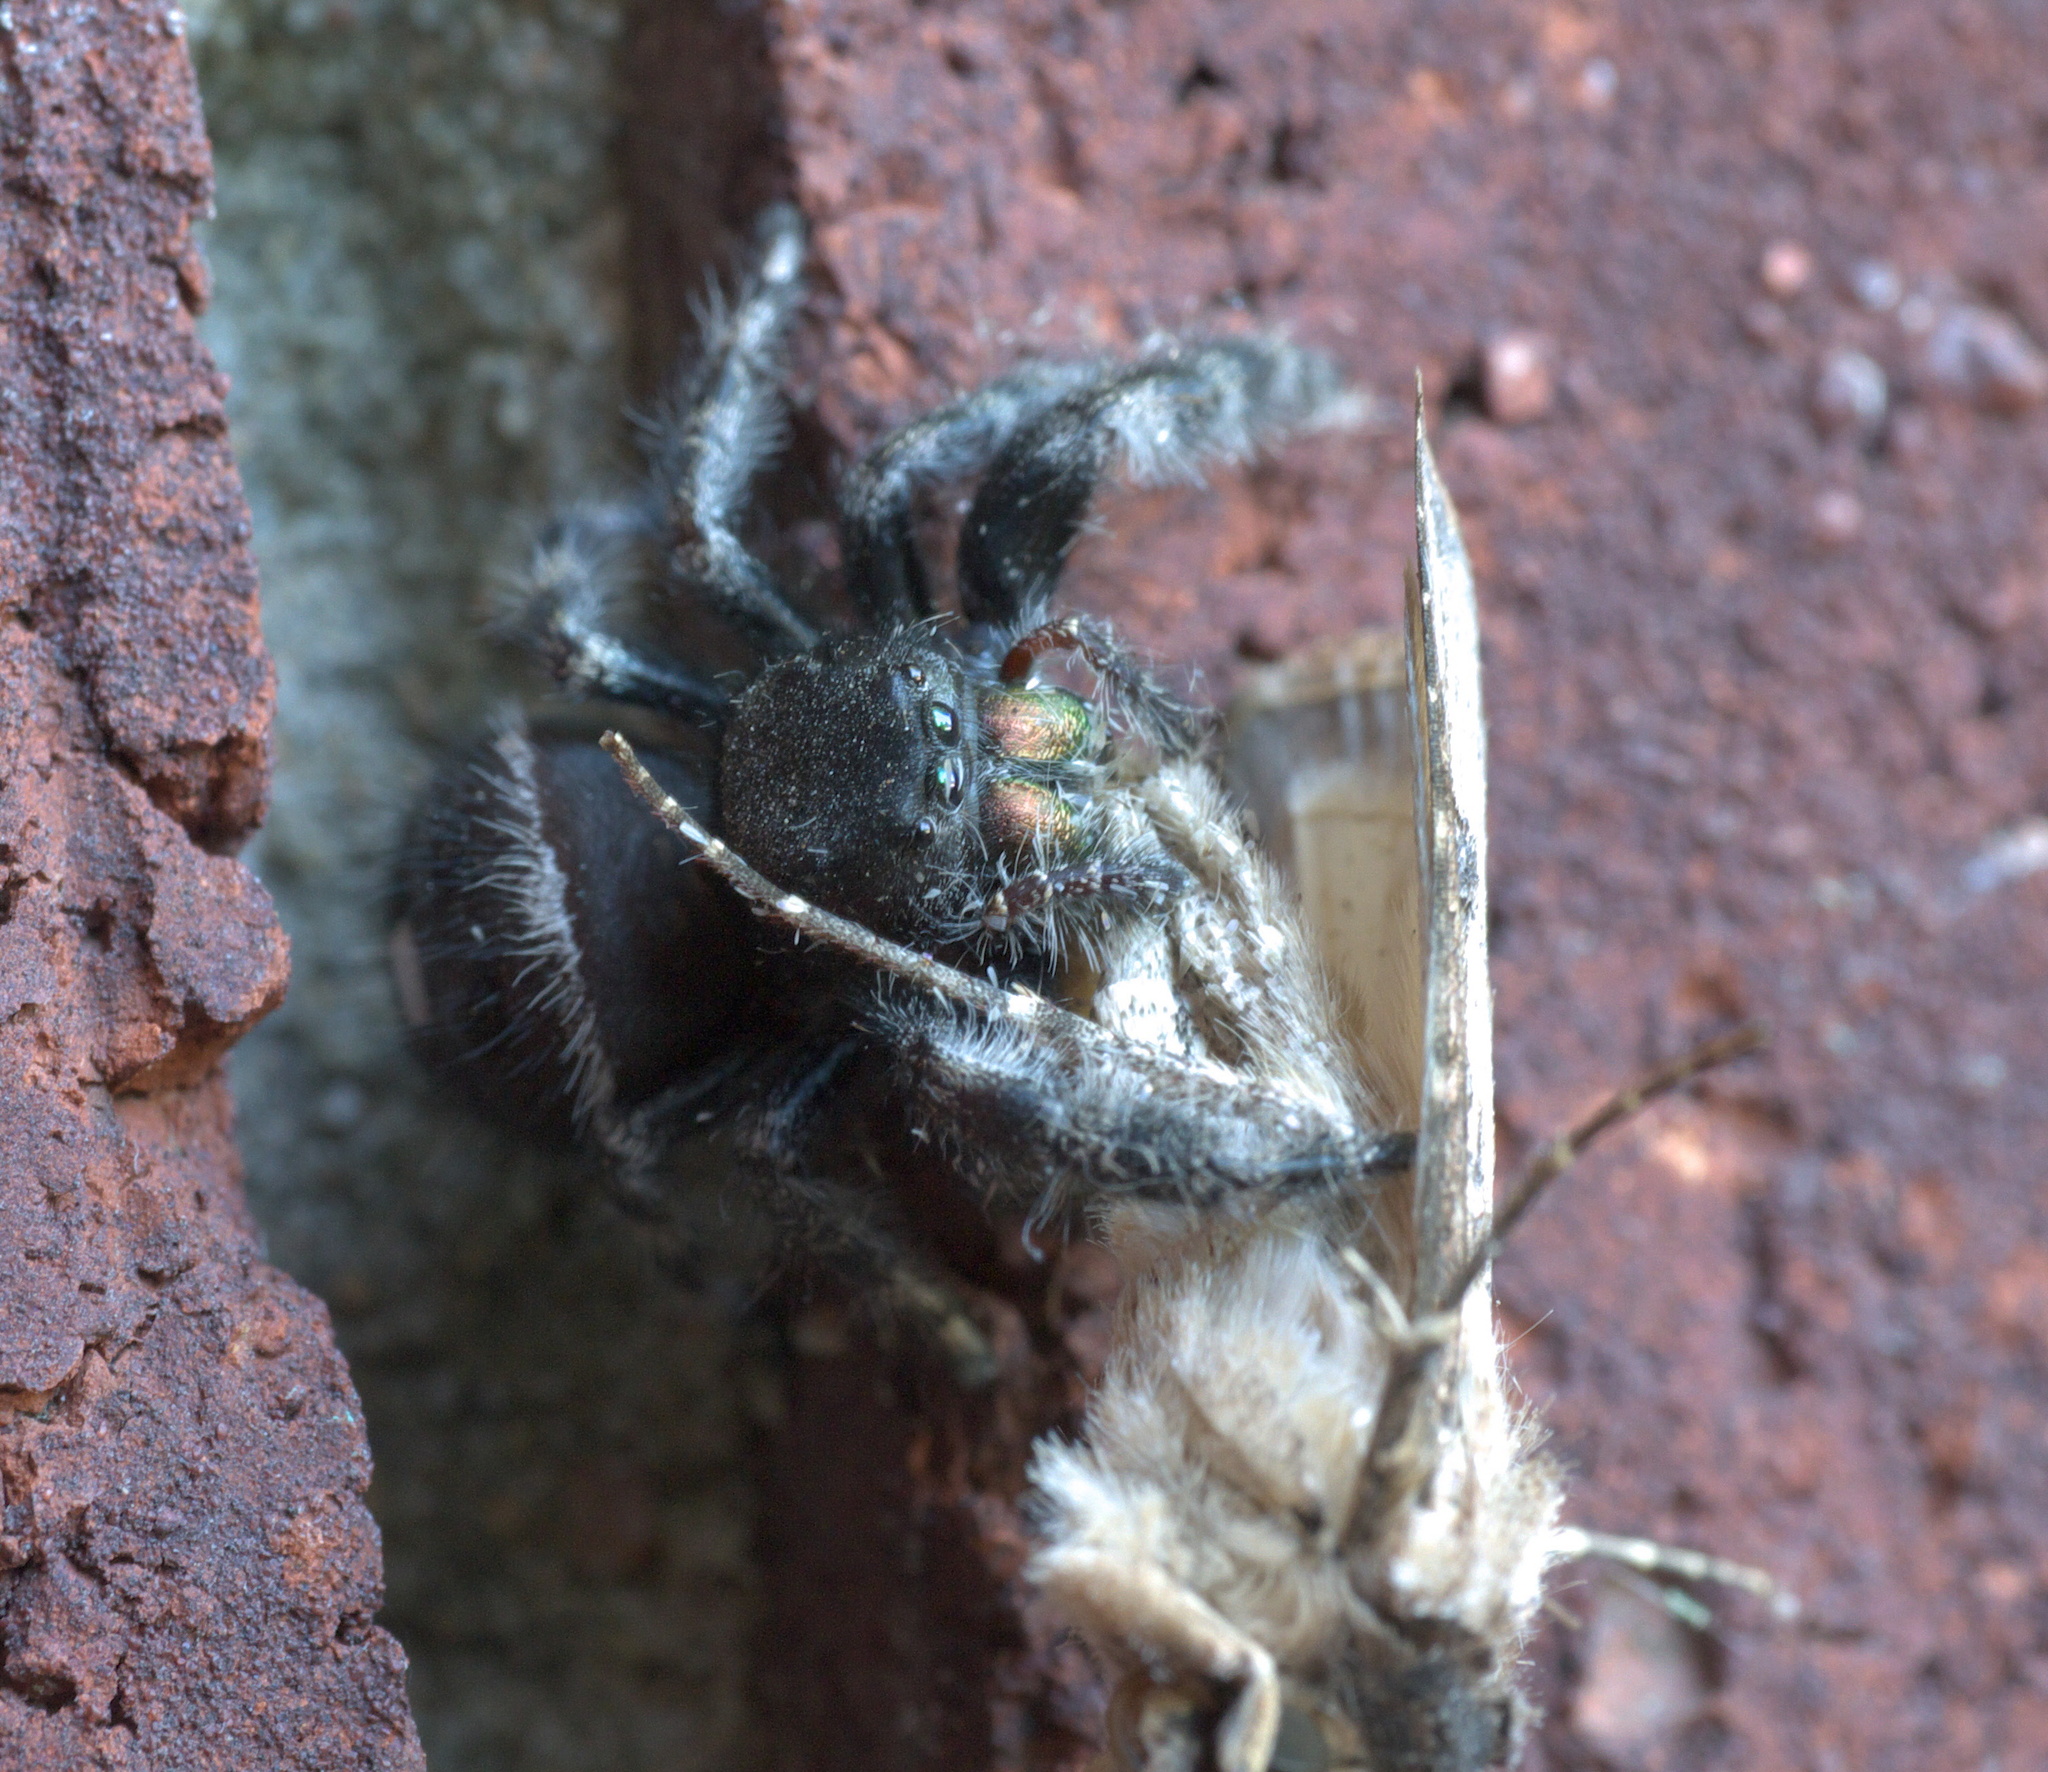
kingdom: Animalia
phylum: Arthropoda
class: Arachnida
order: Araneae
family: Salticidae
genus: Phidippus
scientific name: Phidippus audax
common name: Bold jumper
